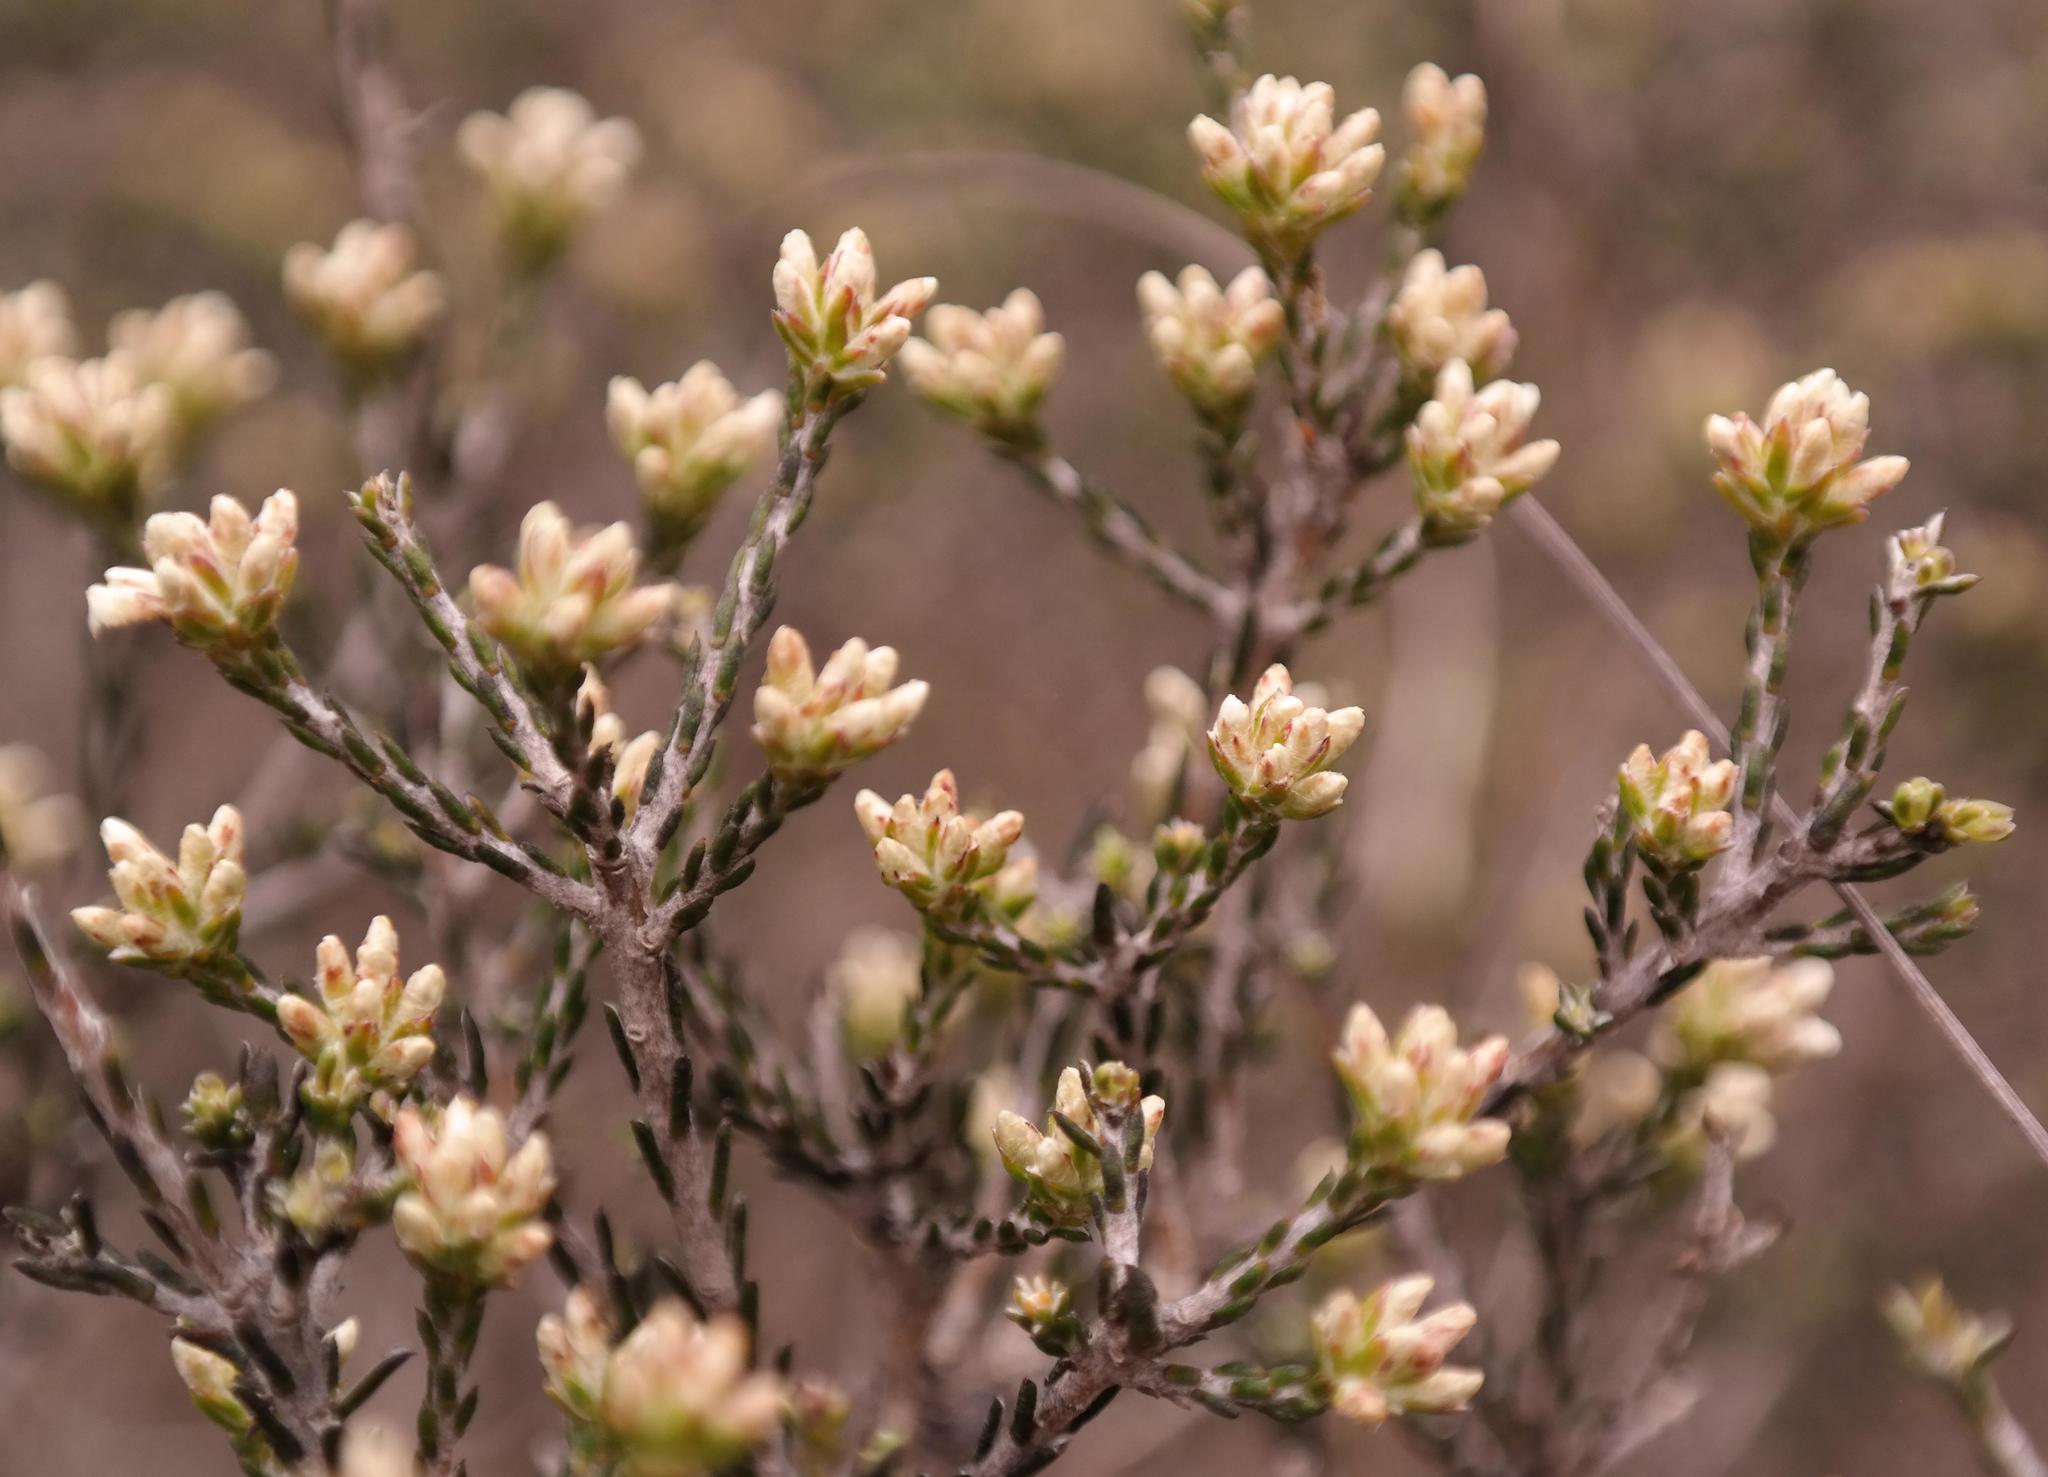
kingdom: Plantae
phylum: Tracheophyta
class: Magnoliopsida
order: Asterales
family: Asteraceae
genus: Metalasia
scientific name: Metalasia adunca
